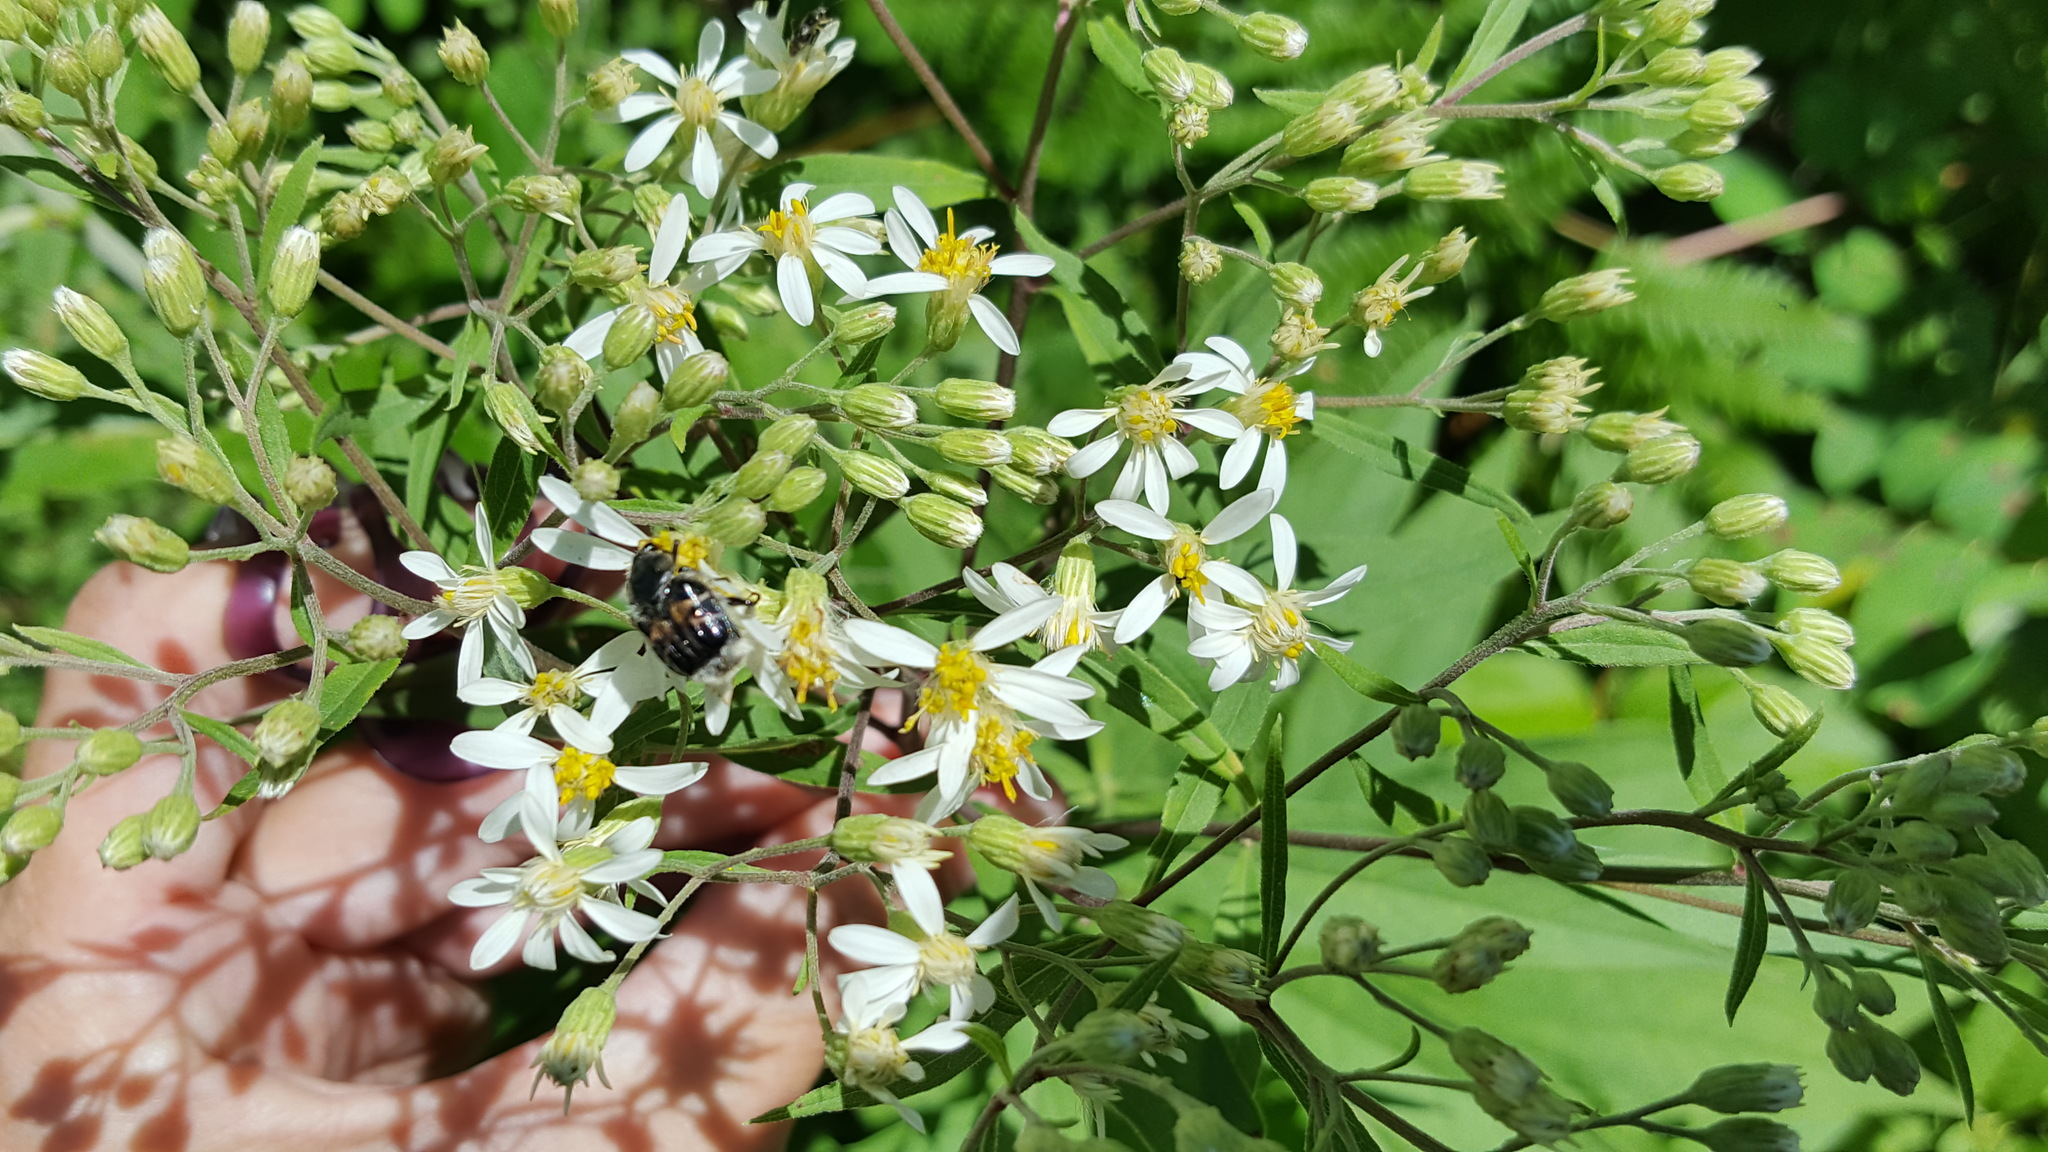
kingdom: Plantae
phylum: Tracheophyta
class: Magnoliopsida
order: Asterales
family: Asteraceae
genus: Doellingeria
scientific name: Doellingeria umbellata
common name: Flat-top white aster
